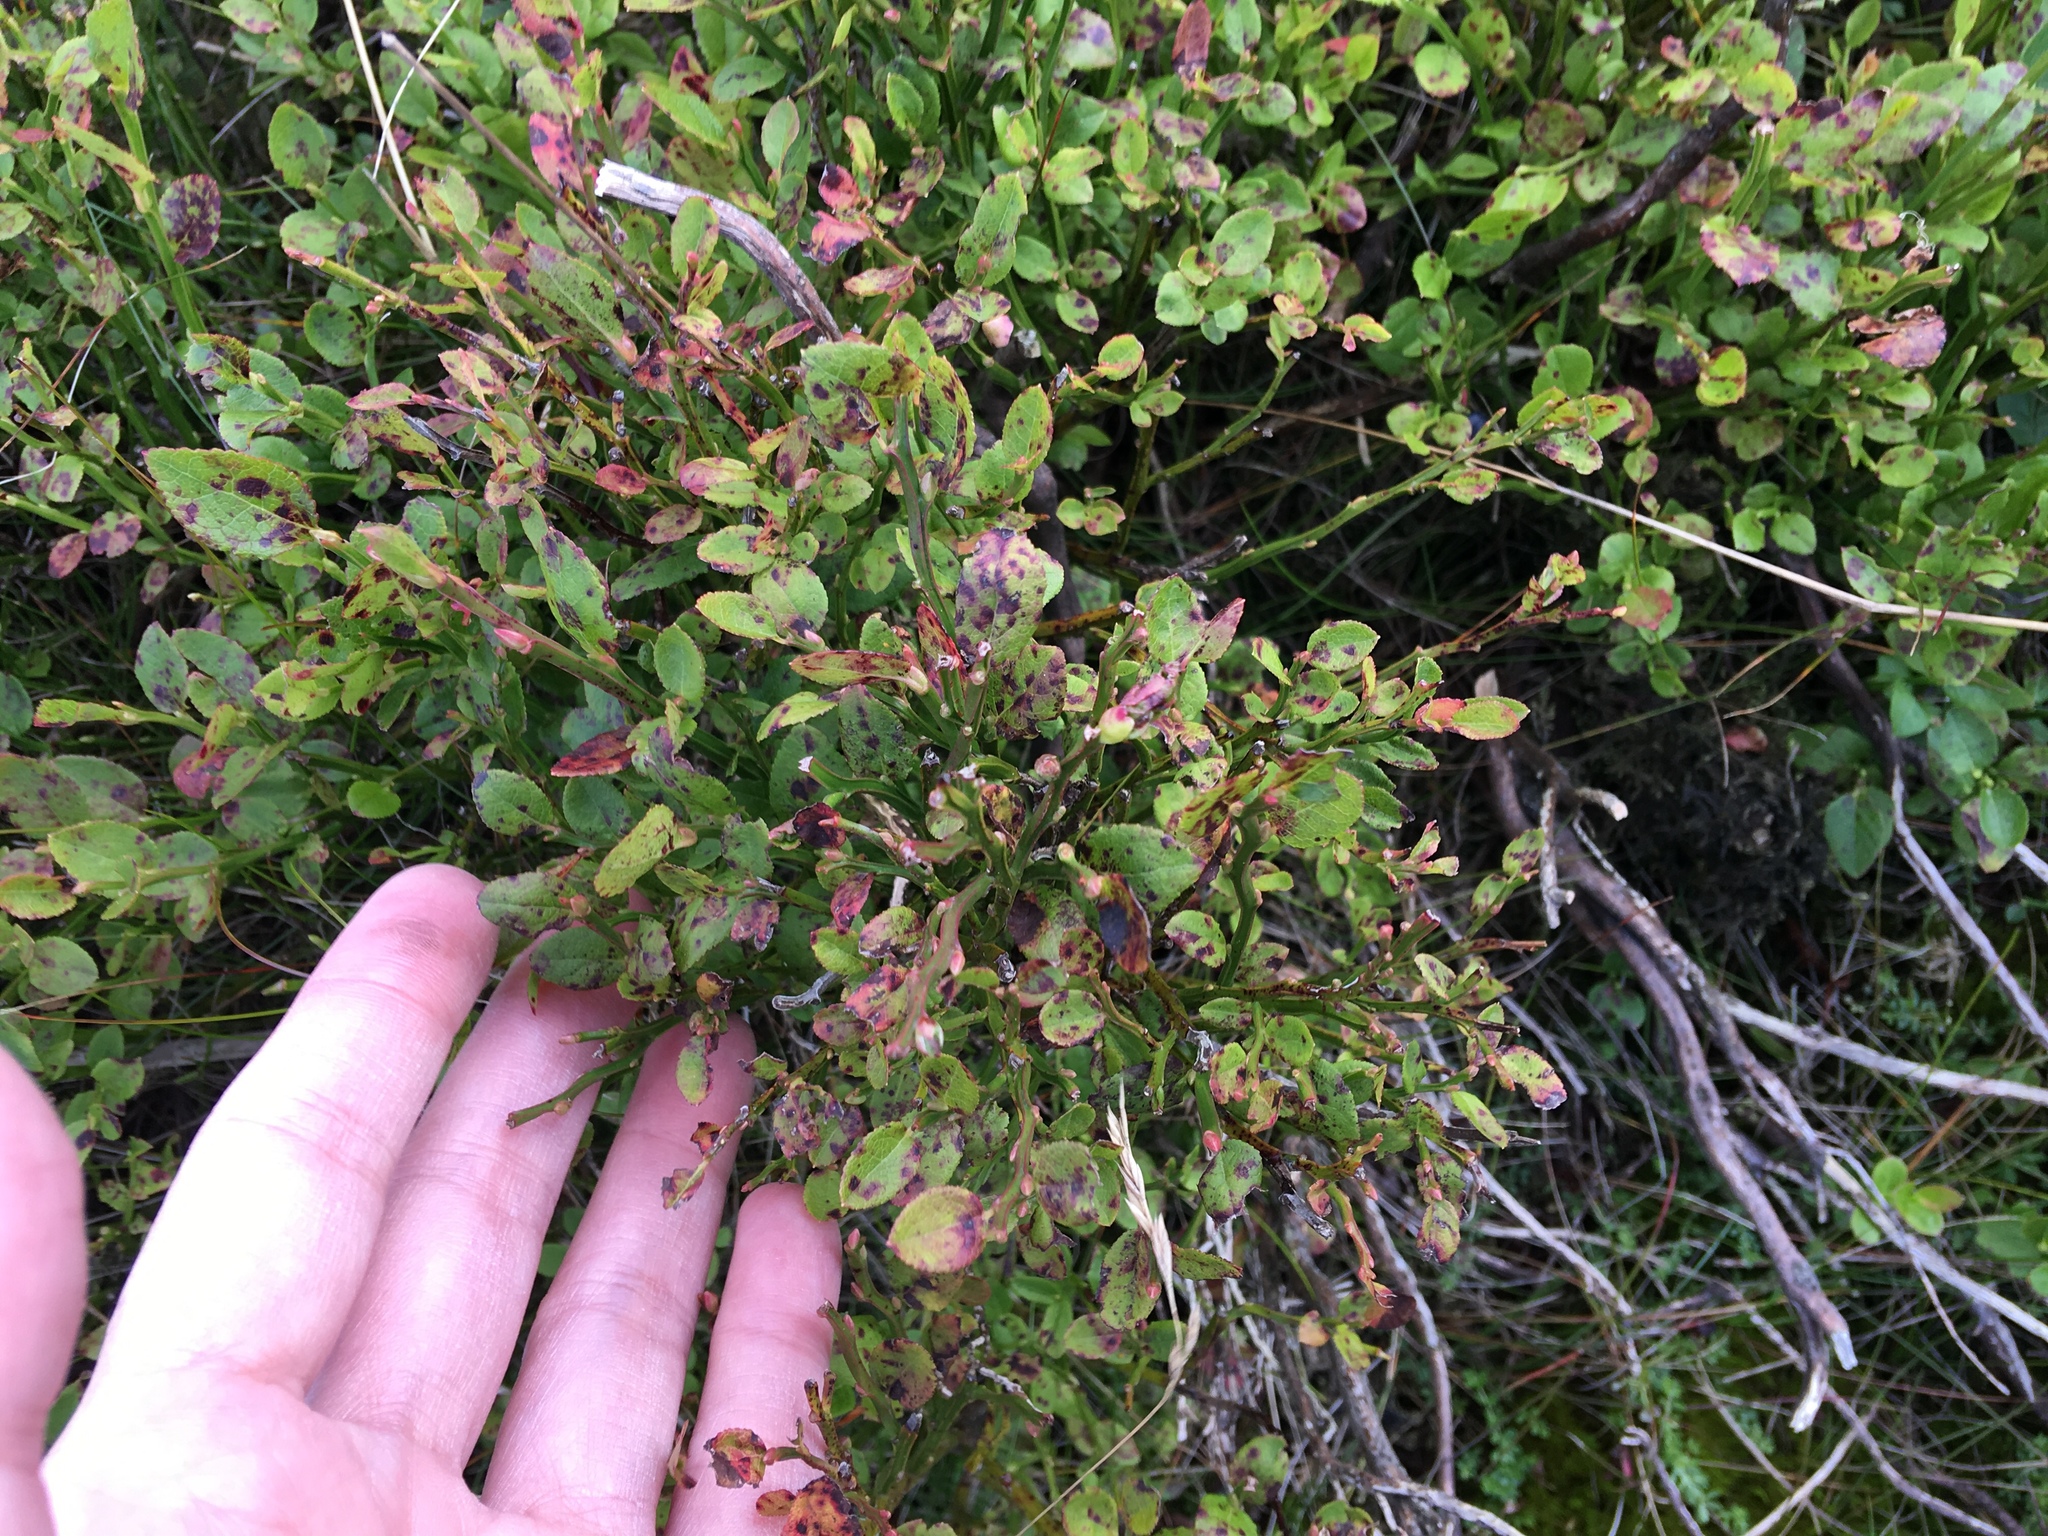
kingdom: Plantae
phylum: Tracheophyta
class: Magnoliopsida
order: Ericales
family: Ericaceae
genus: Vaccinium
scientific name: Vaccinium myrtillus
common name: Bilberry
